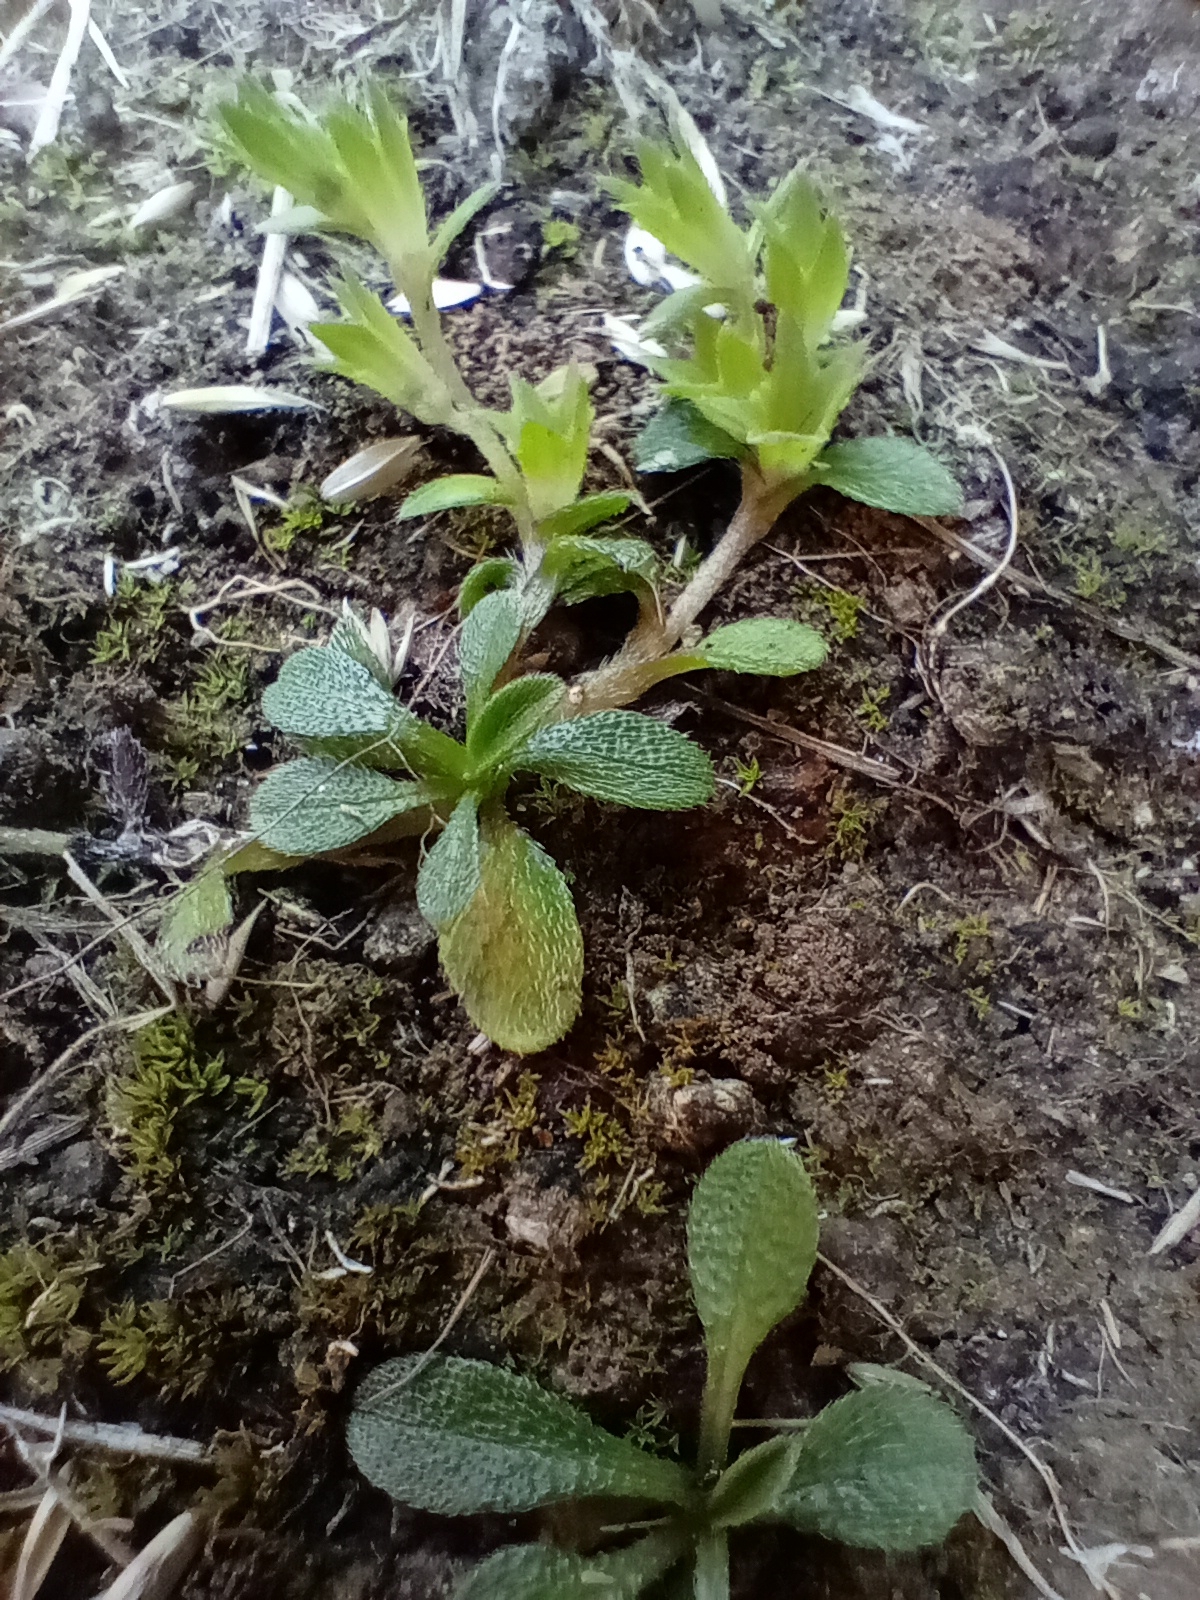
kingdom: Plantae
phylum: Tracheophyta
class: Magnoliopsida
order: Boraginales
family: Boraginaceae
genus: Myosotis
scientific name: Myosotis antarctica
